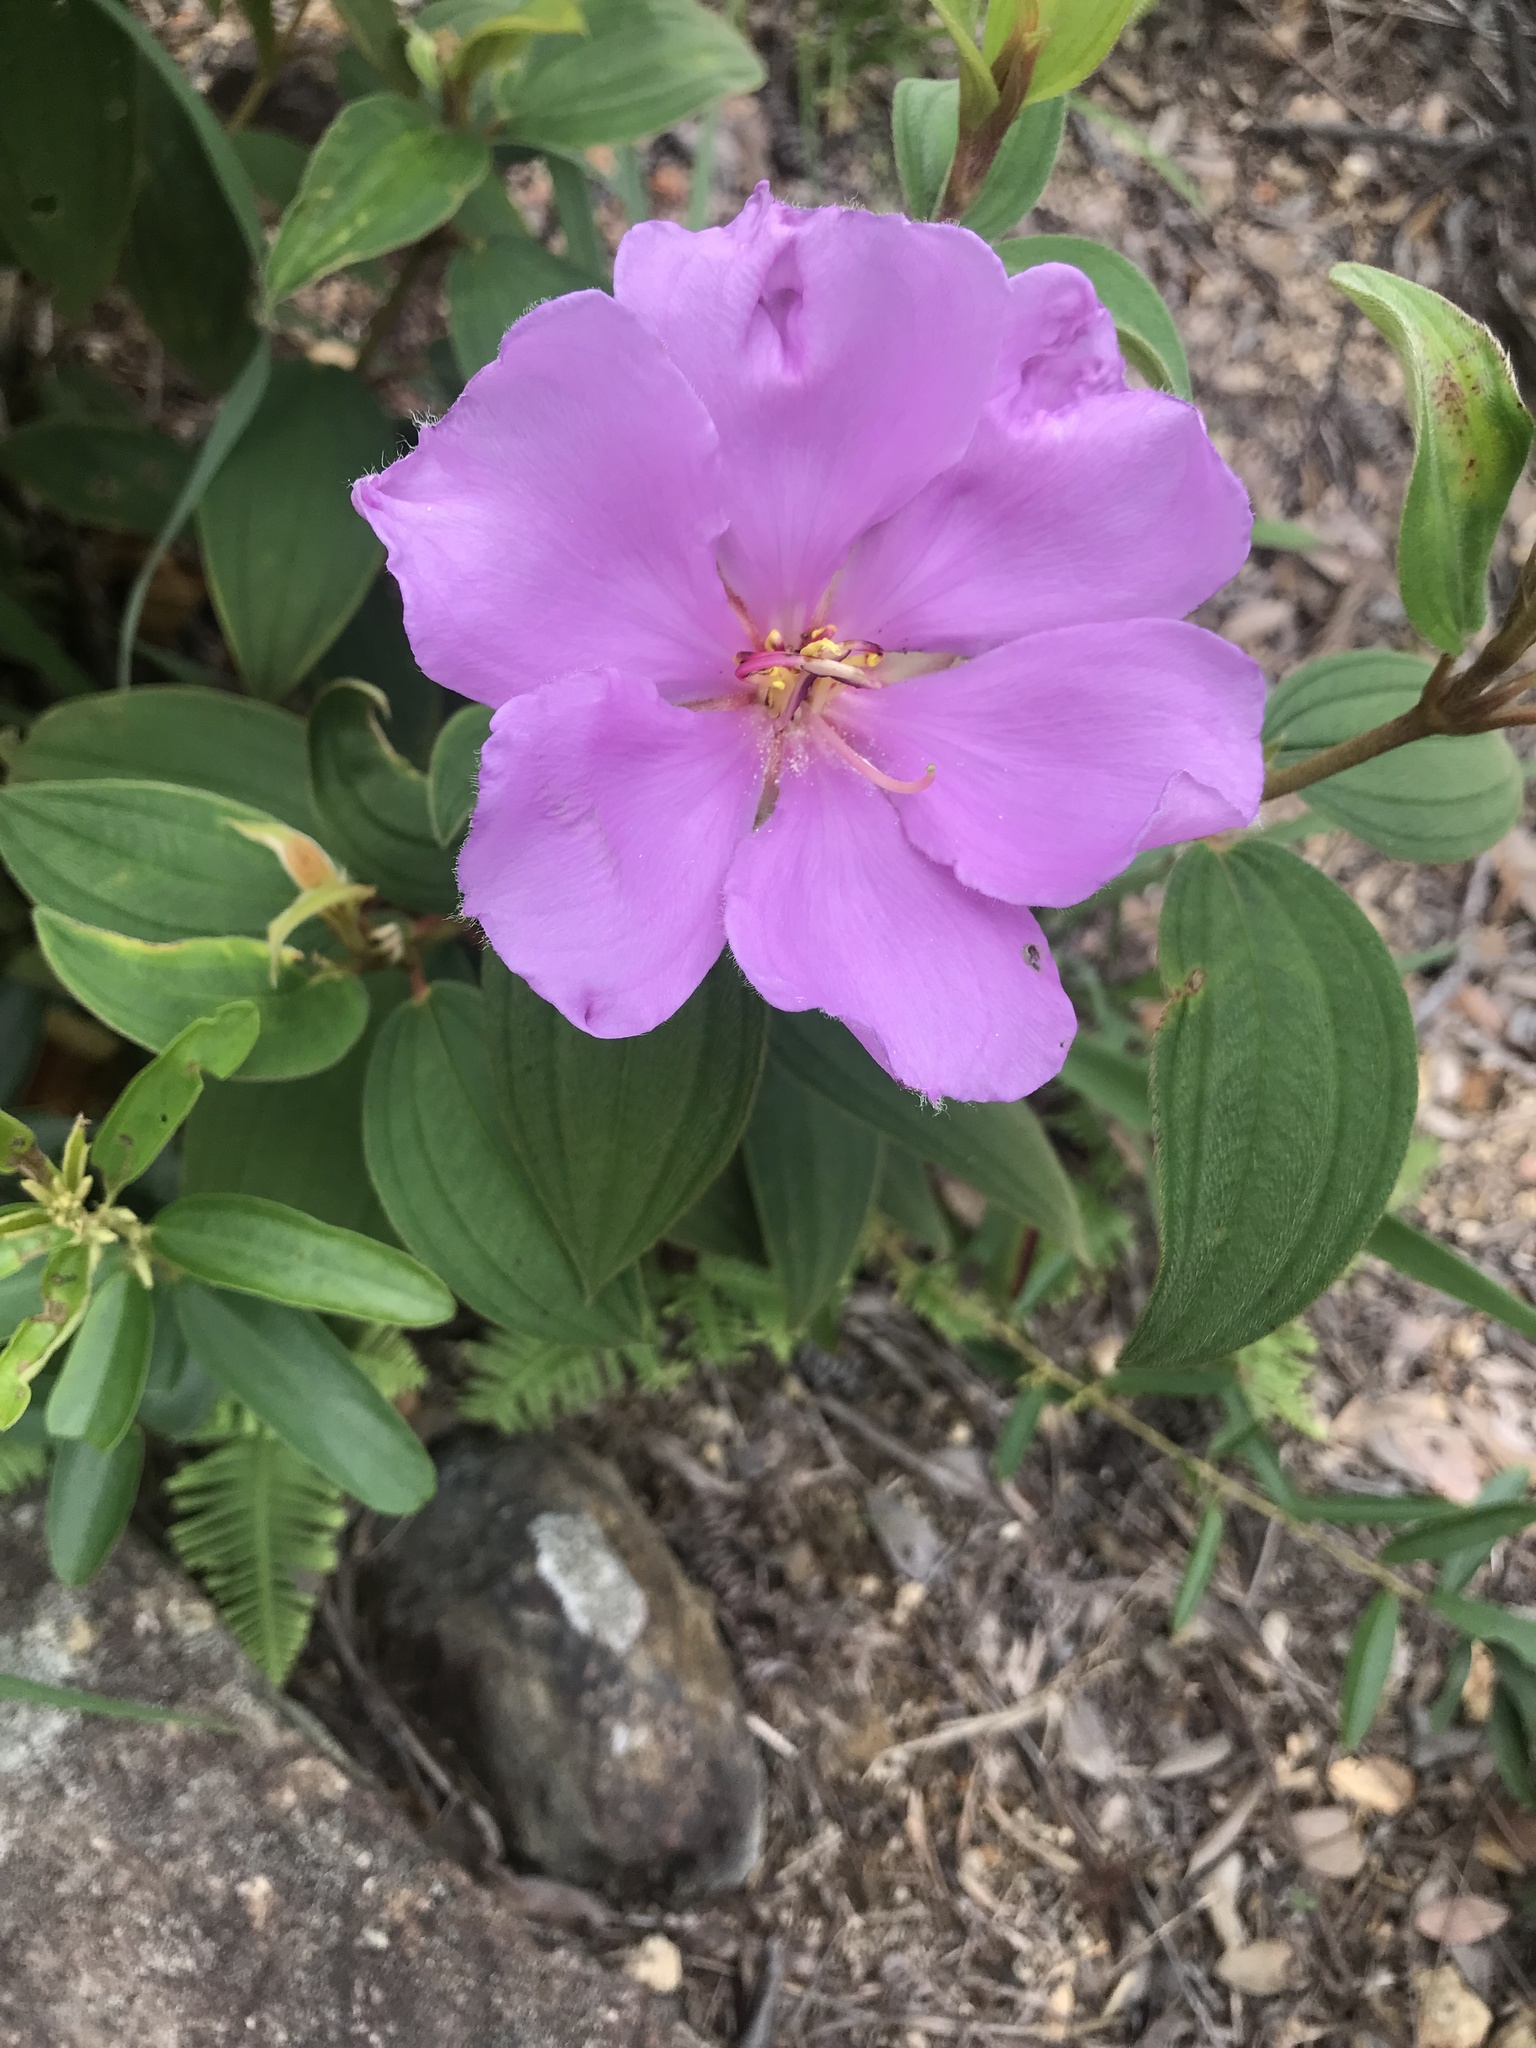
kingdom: Plantae
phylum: Tracheophyta
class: Magnoliopsida
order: Myrtales
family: Melastomataceae
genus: Melastoma
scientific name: Melastoma malabathricum
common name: Indian-rhododendron
